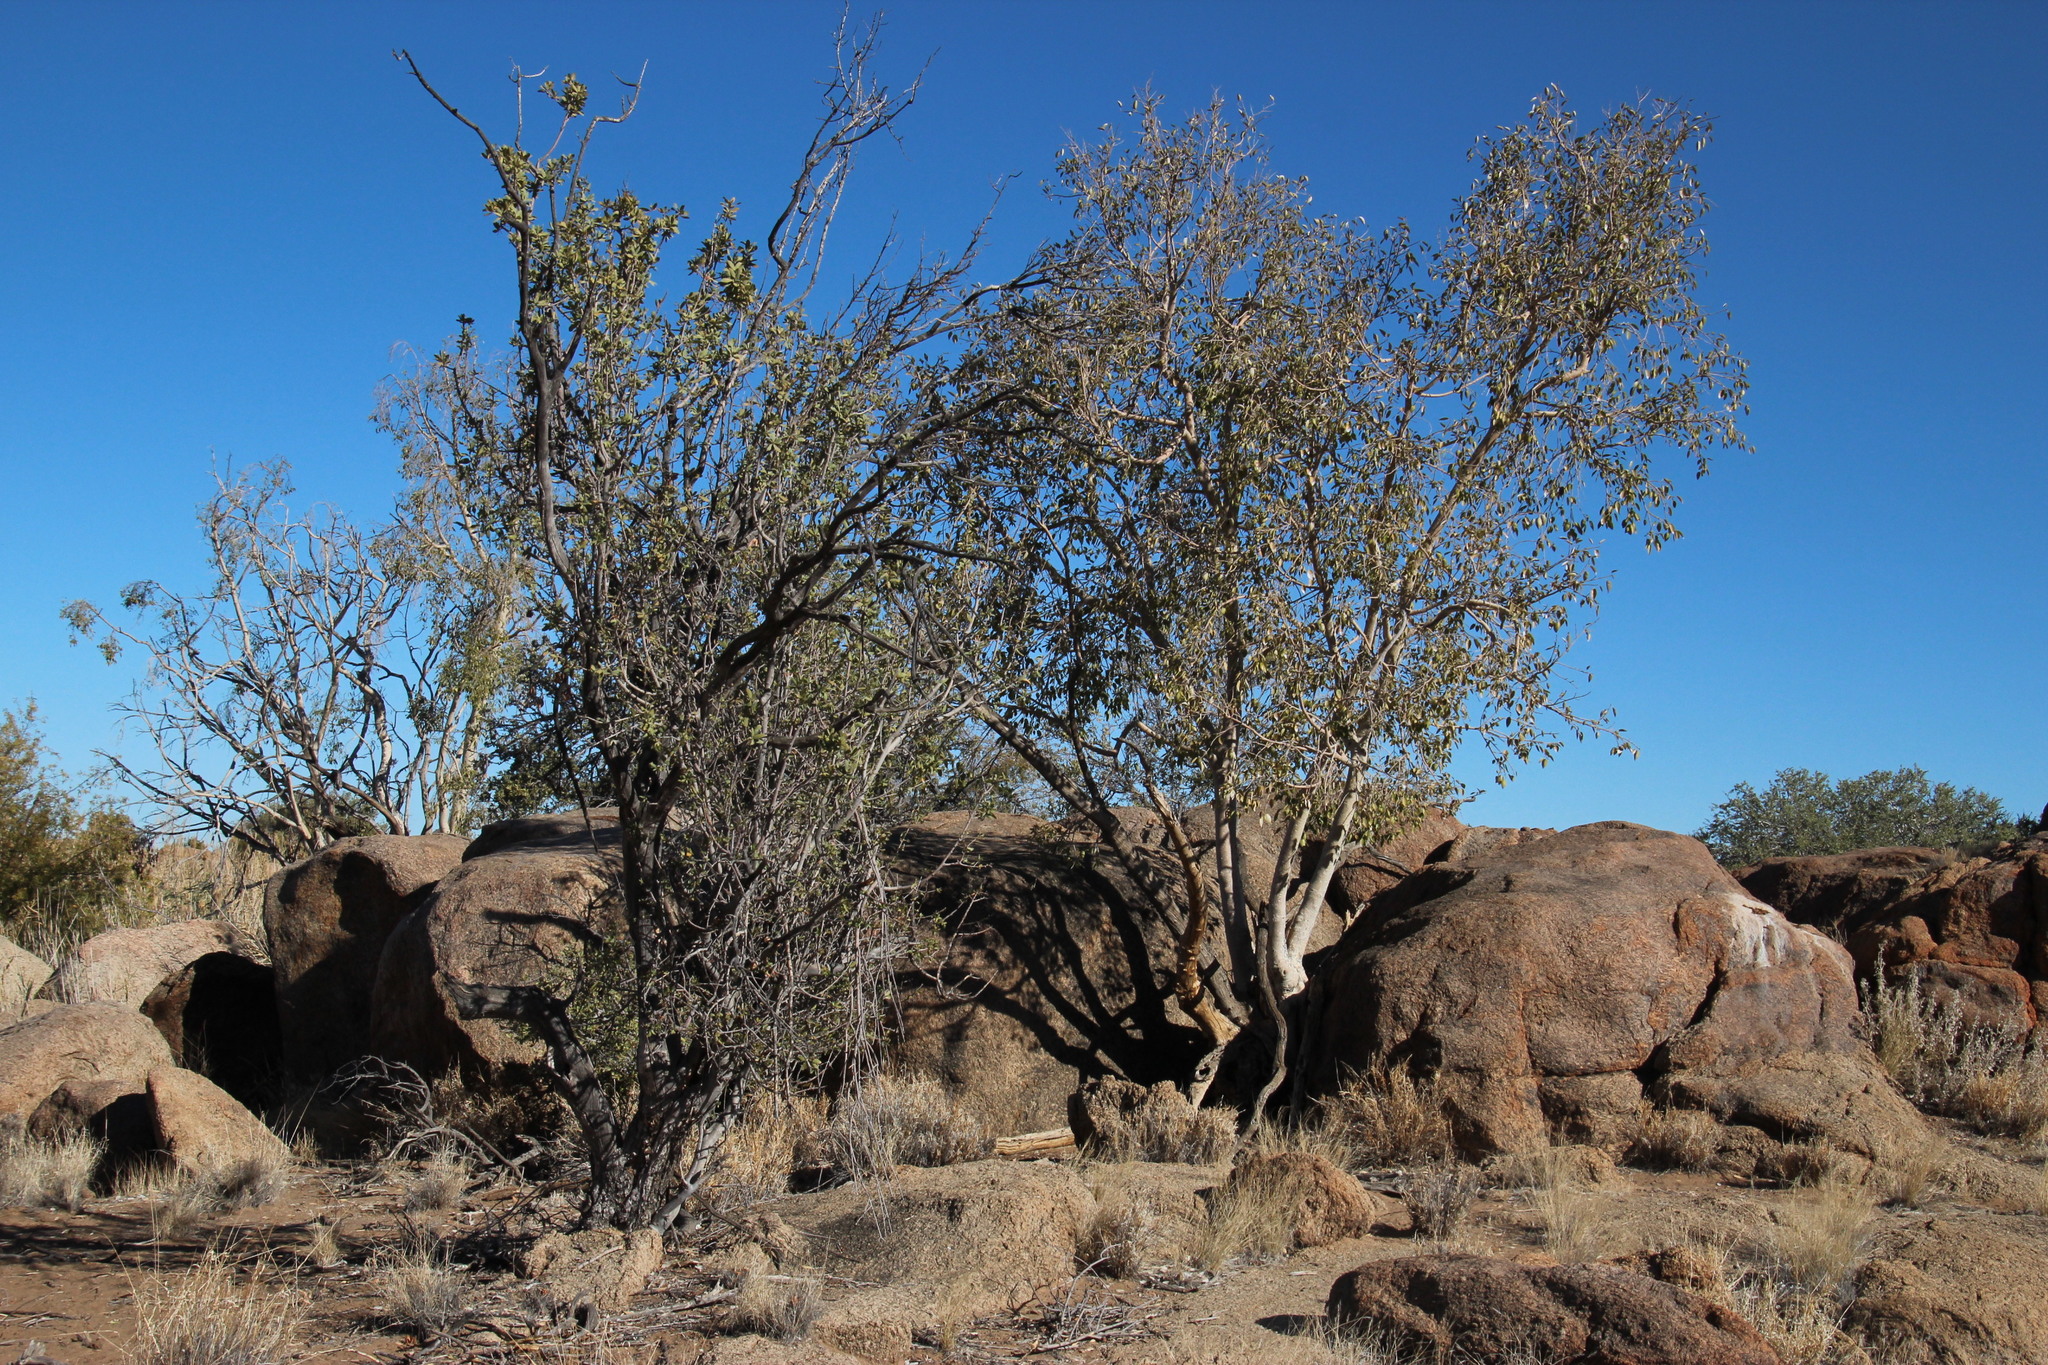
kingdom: Plantae
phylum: Tracheophyta
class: Magnoliopsida
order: Sapindales
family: Sapindaceae
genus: Pappea
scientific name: Pappea capensis
